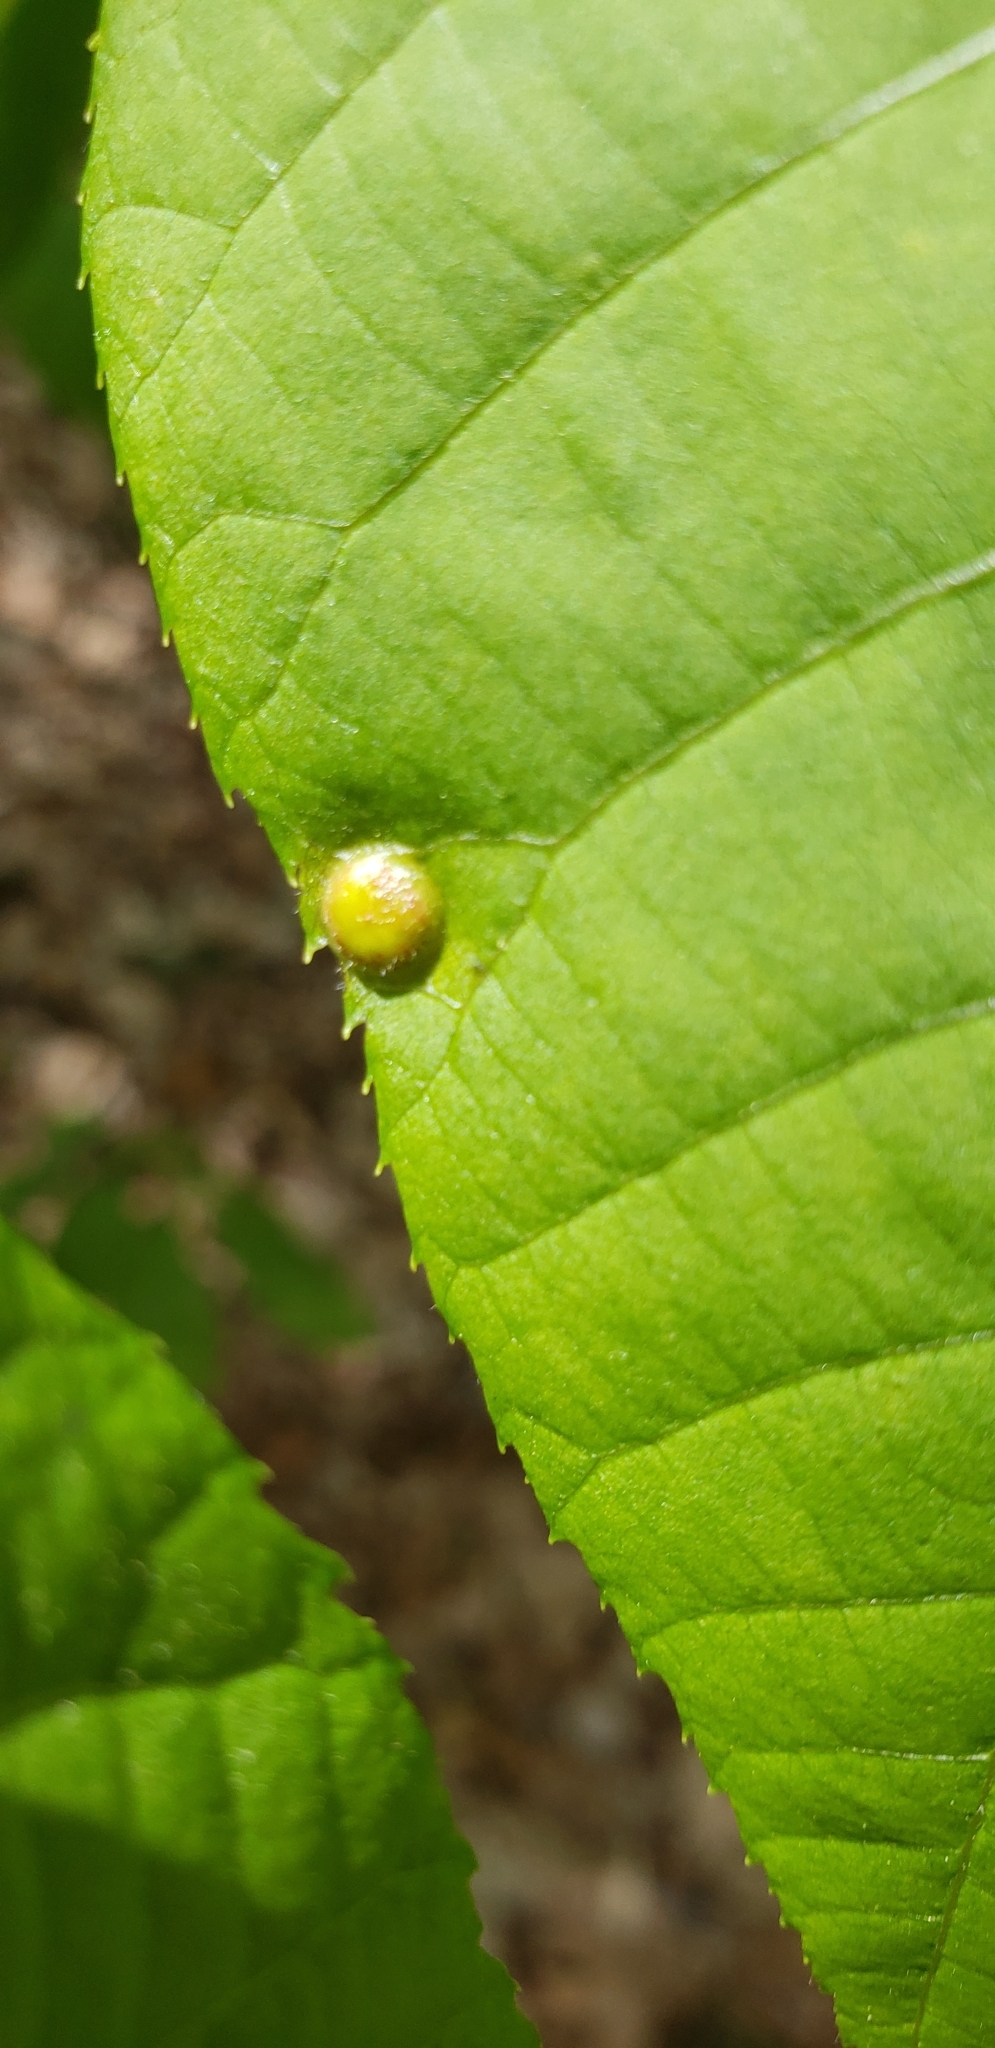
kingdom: Animalia
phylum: Arthropoda
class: Insecta
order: Hemiptera
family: Phylloxeridae
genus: Phylloxera
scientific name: Phylloxera caryae-globuli
